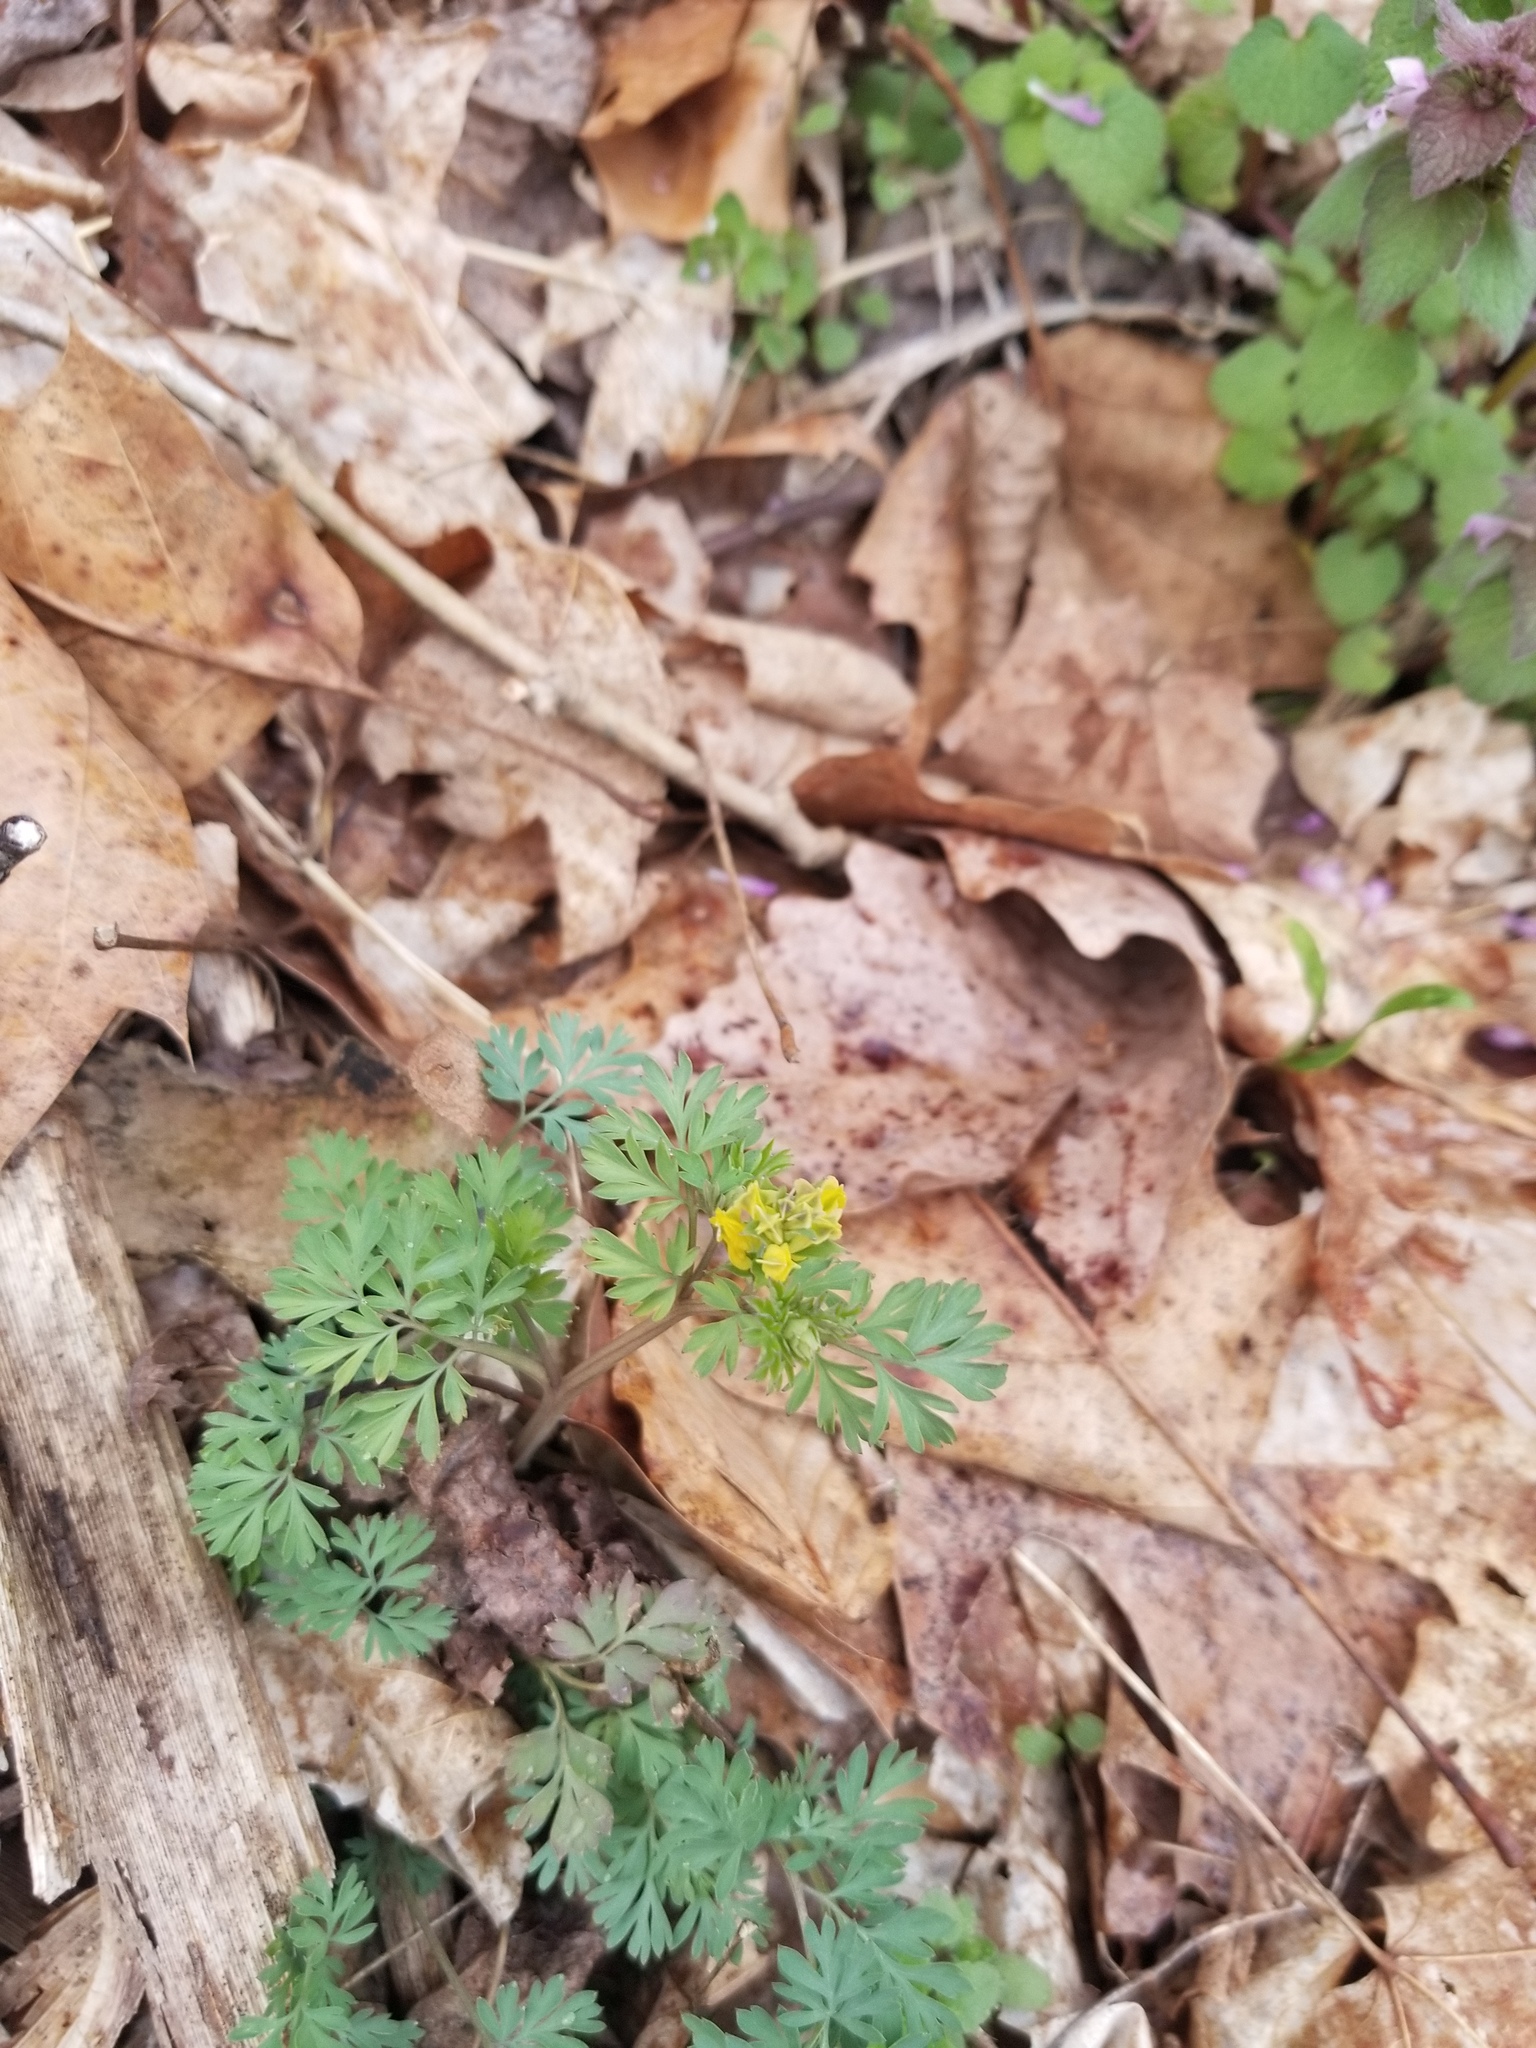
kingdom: Plantae
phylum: Tracheophyta
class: Magnoliopsida
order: Ranunculales
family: Papaveraceae
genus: Corydalis
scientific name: Corydalis flavula
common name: Yellow corydalis
